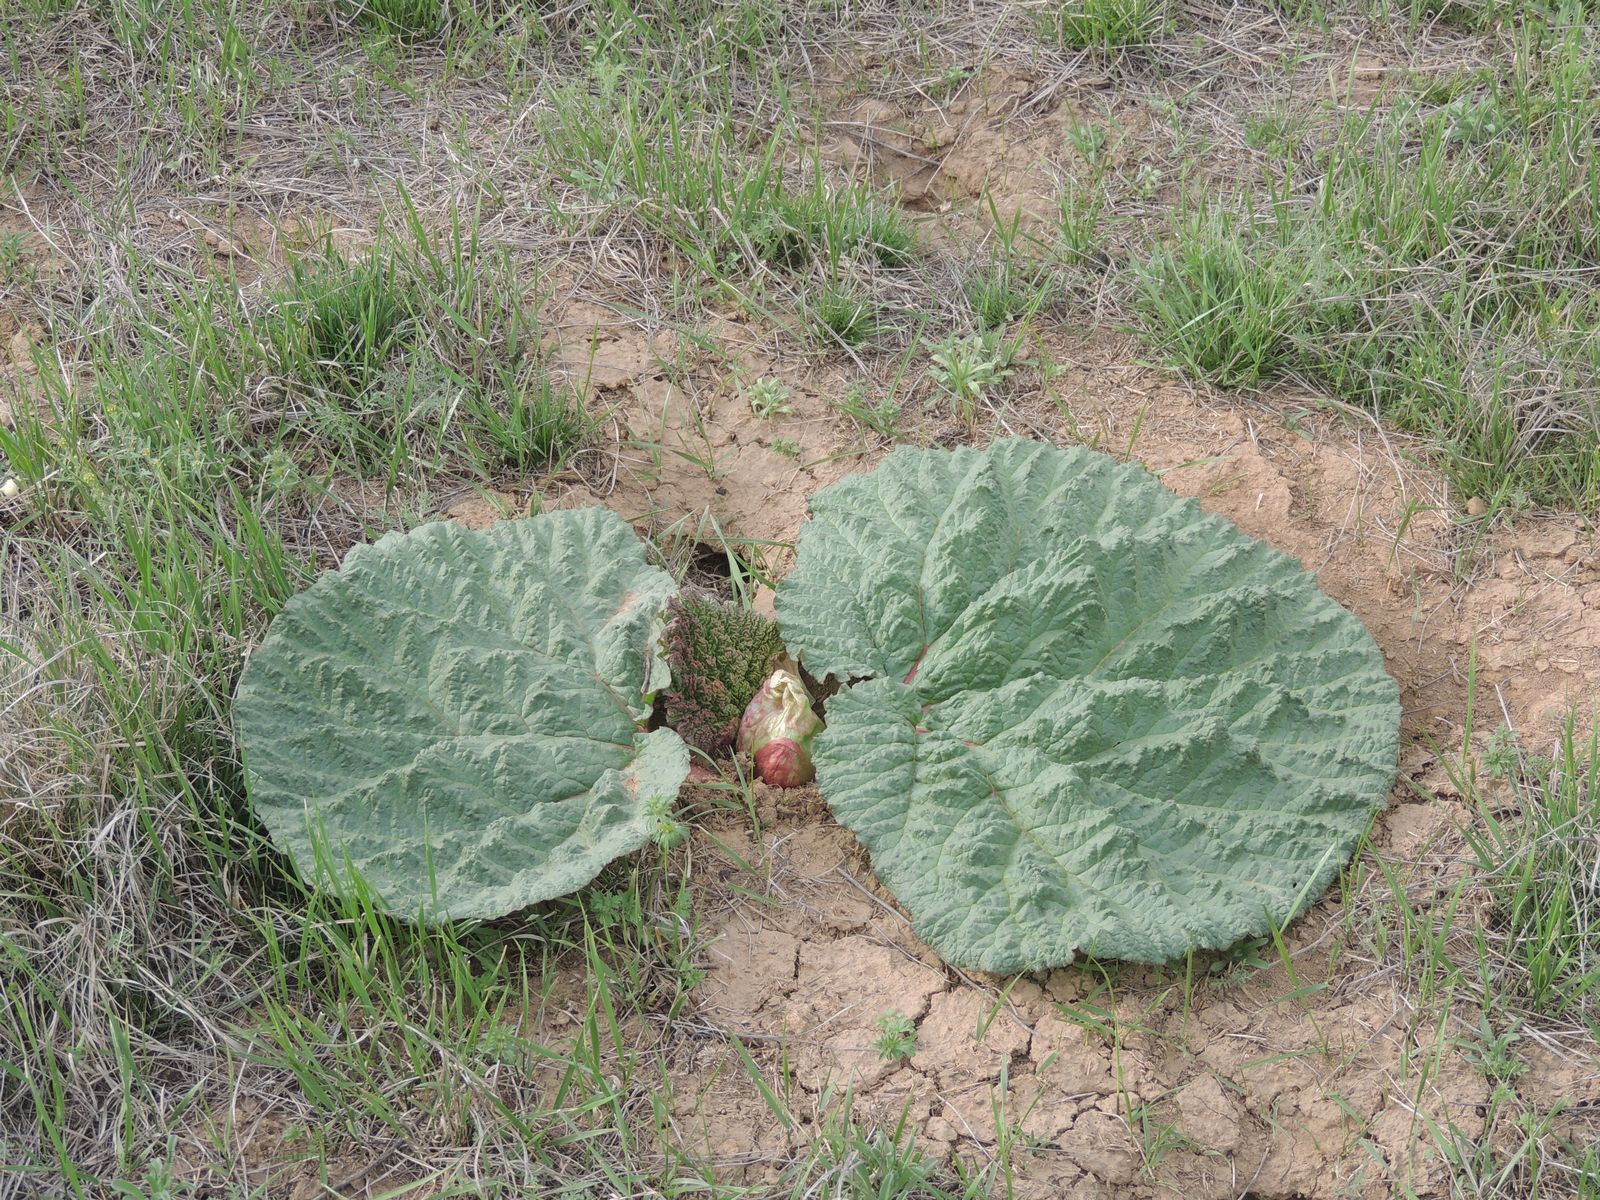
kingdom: Plantae
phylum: Tracheophyta
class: Magnoliopsida
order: Caryophyllales
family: Polygonaceae
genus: Rheum
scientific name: Rheum tataricum
